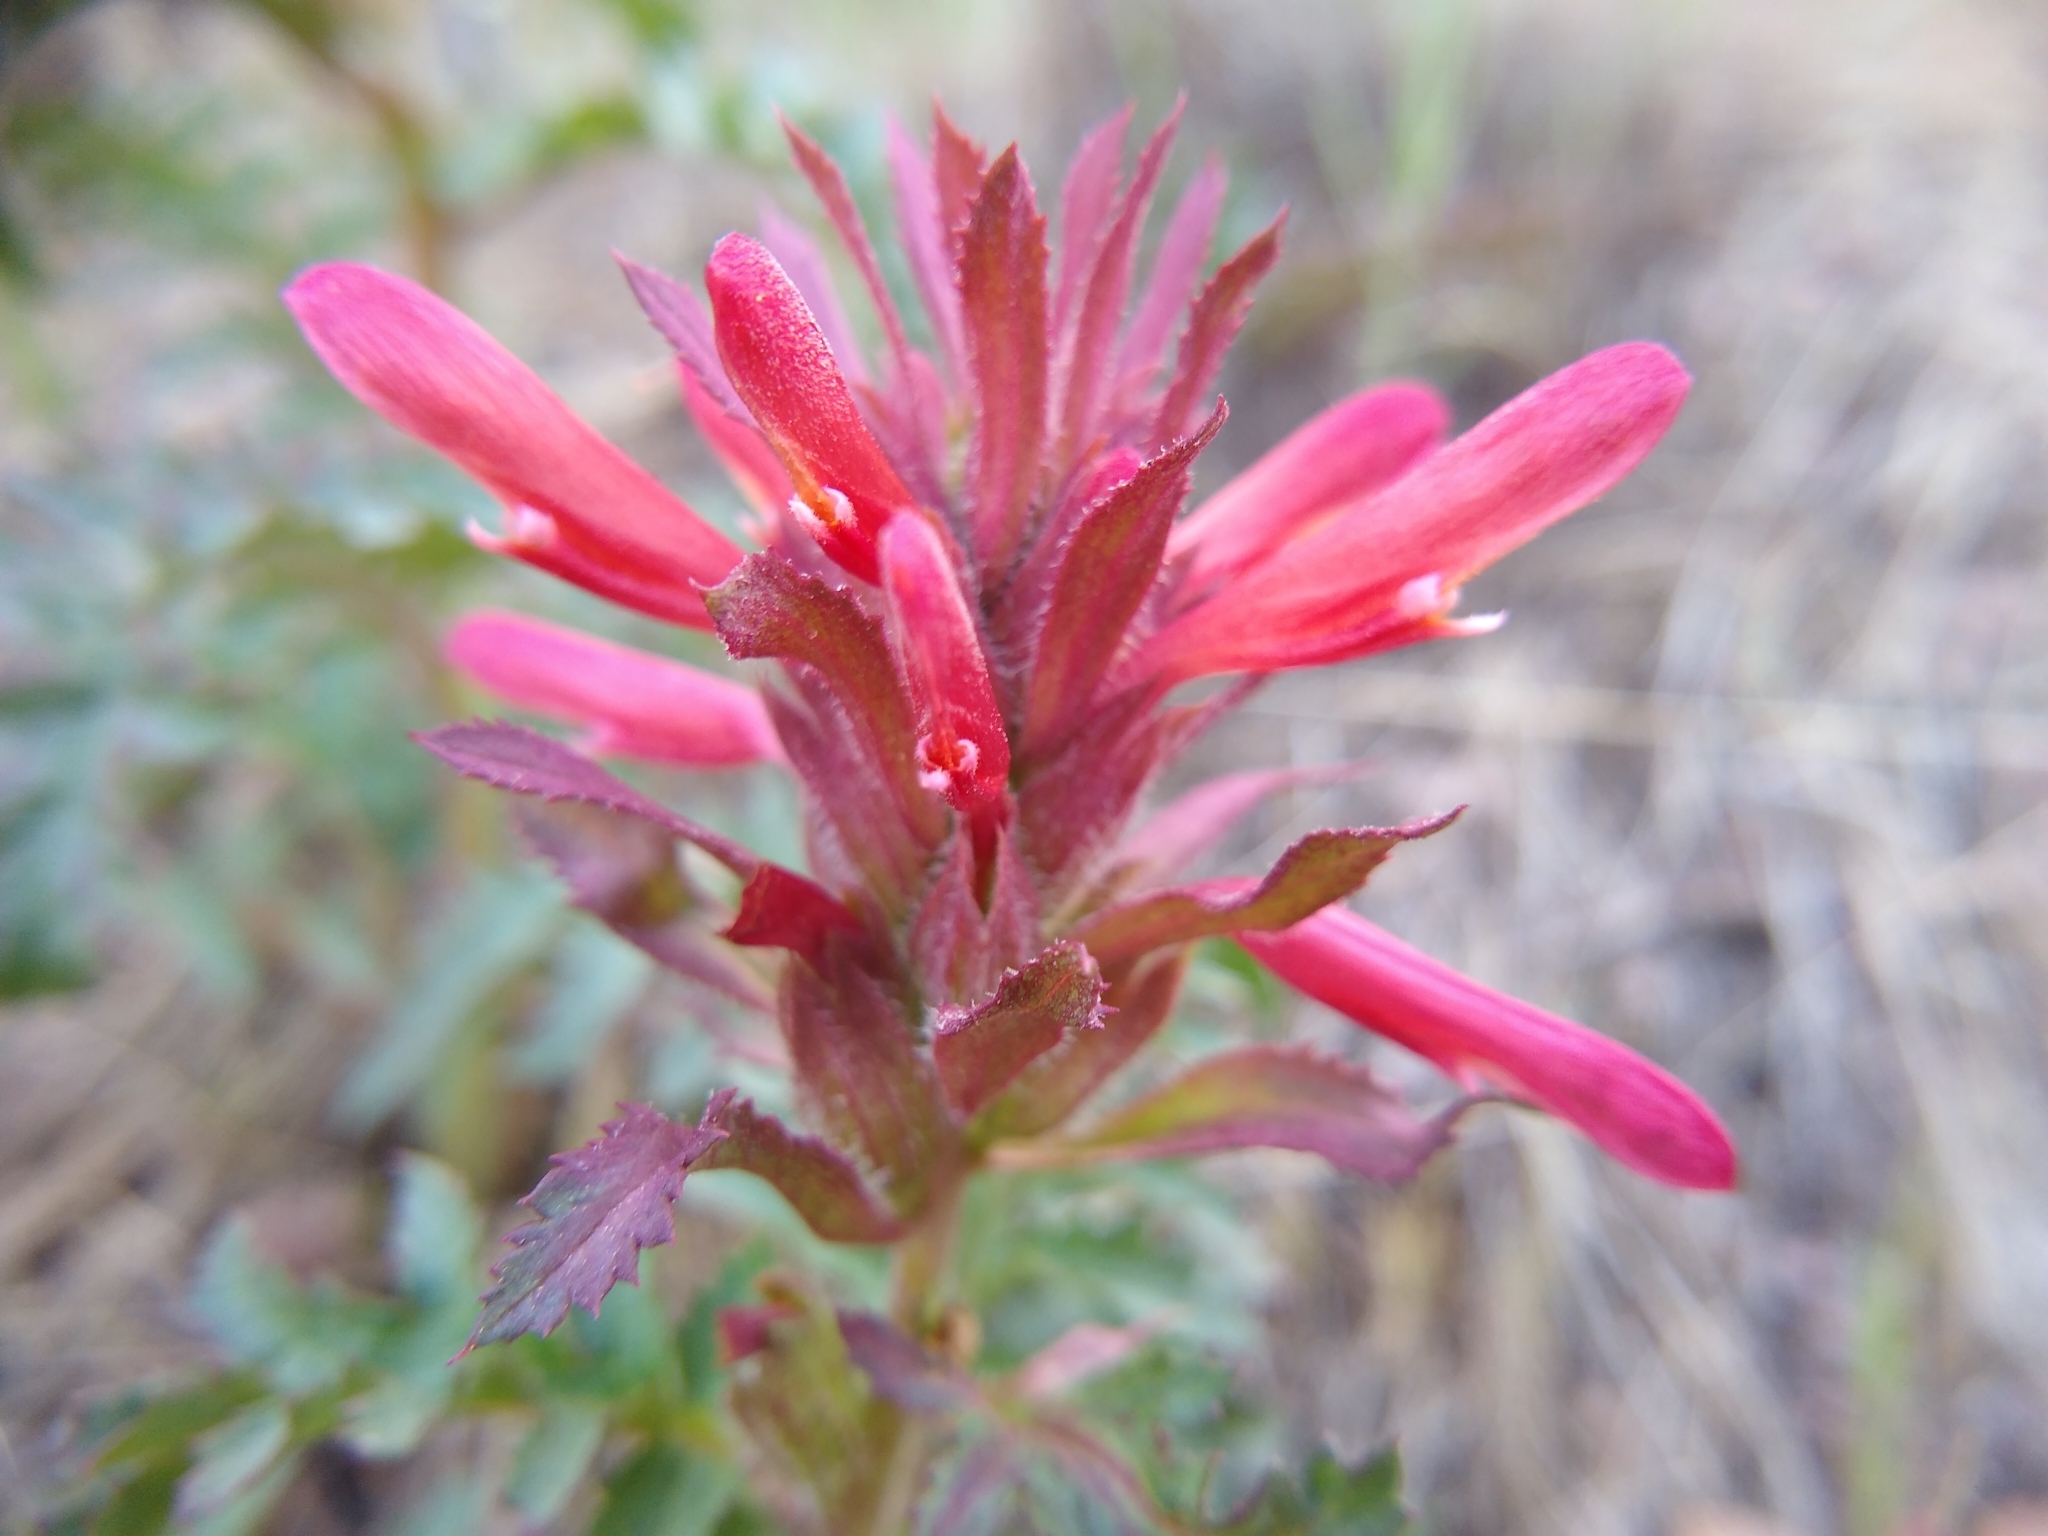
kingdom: Plantae
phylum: Tracheophyta
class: Magnoliopsida
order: Lamiales
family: Orobanchaceae
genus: Pedicularis
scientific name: Pedicularis densiflora
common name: Indian warrior
